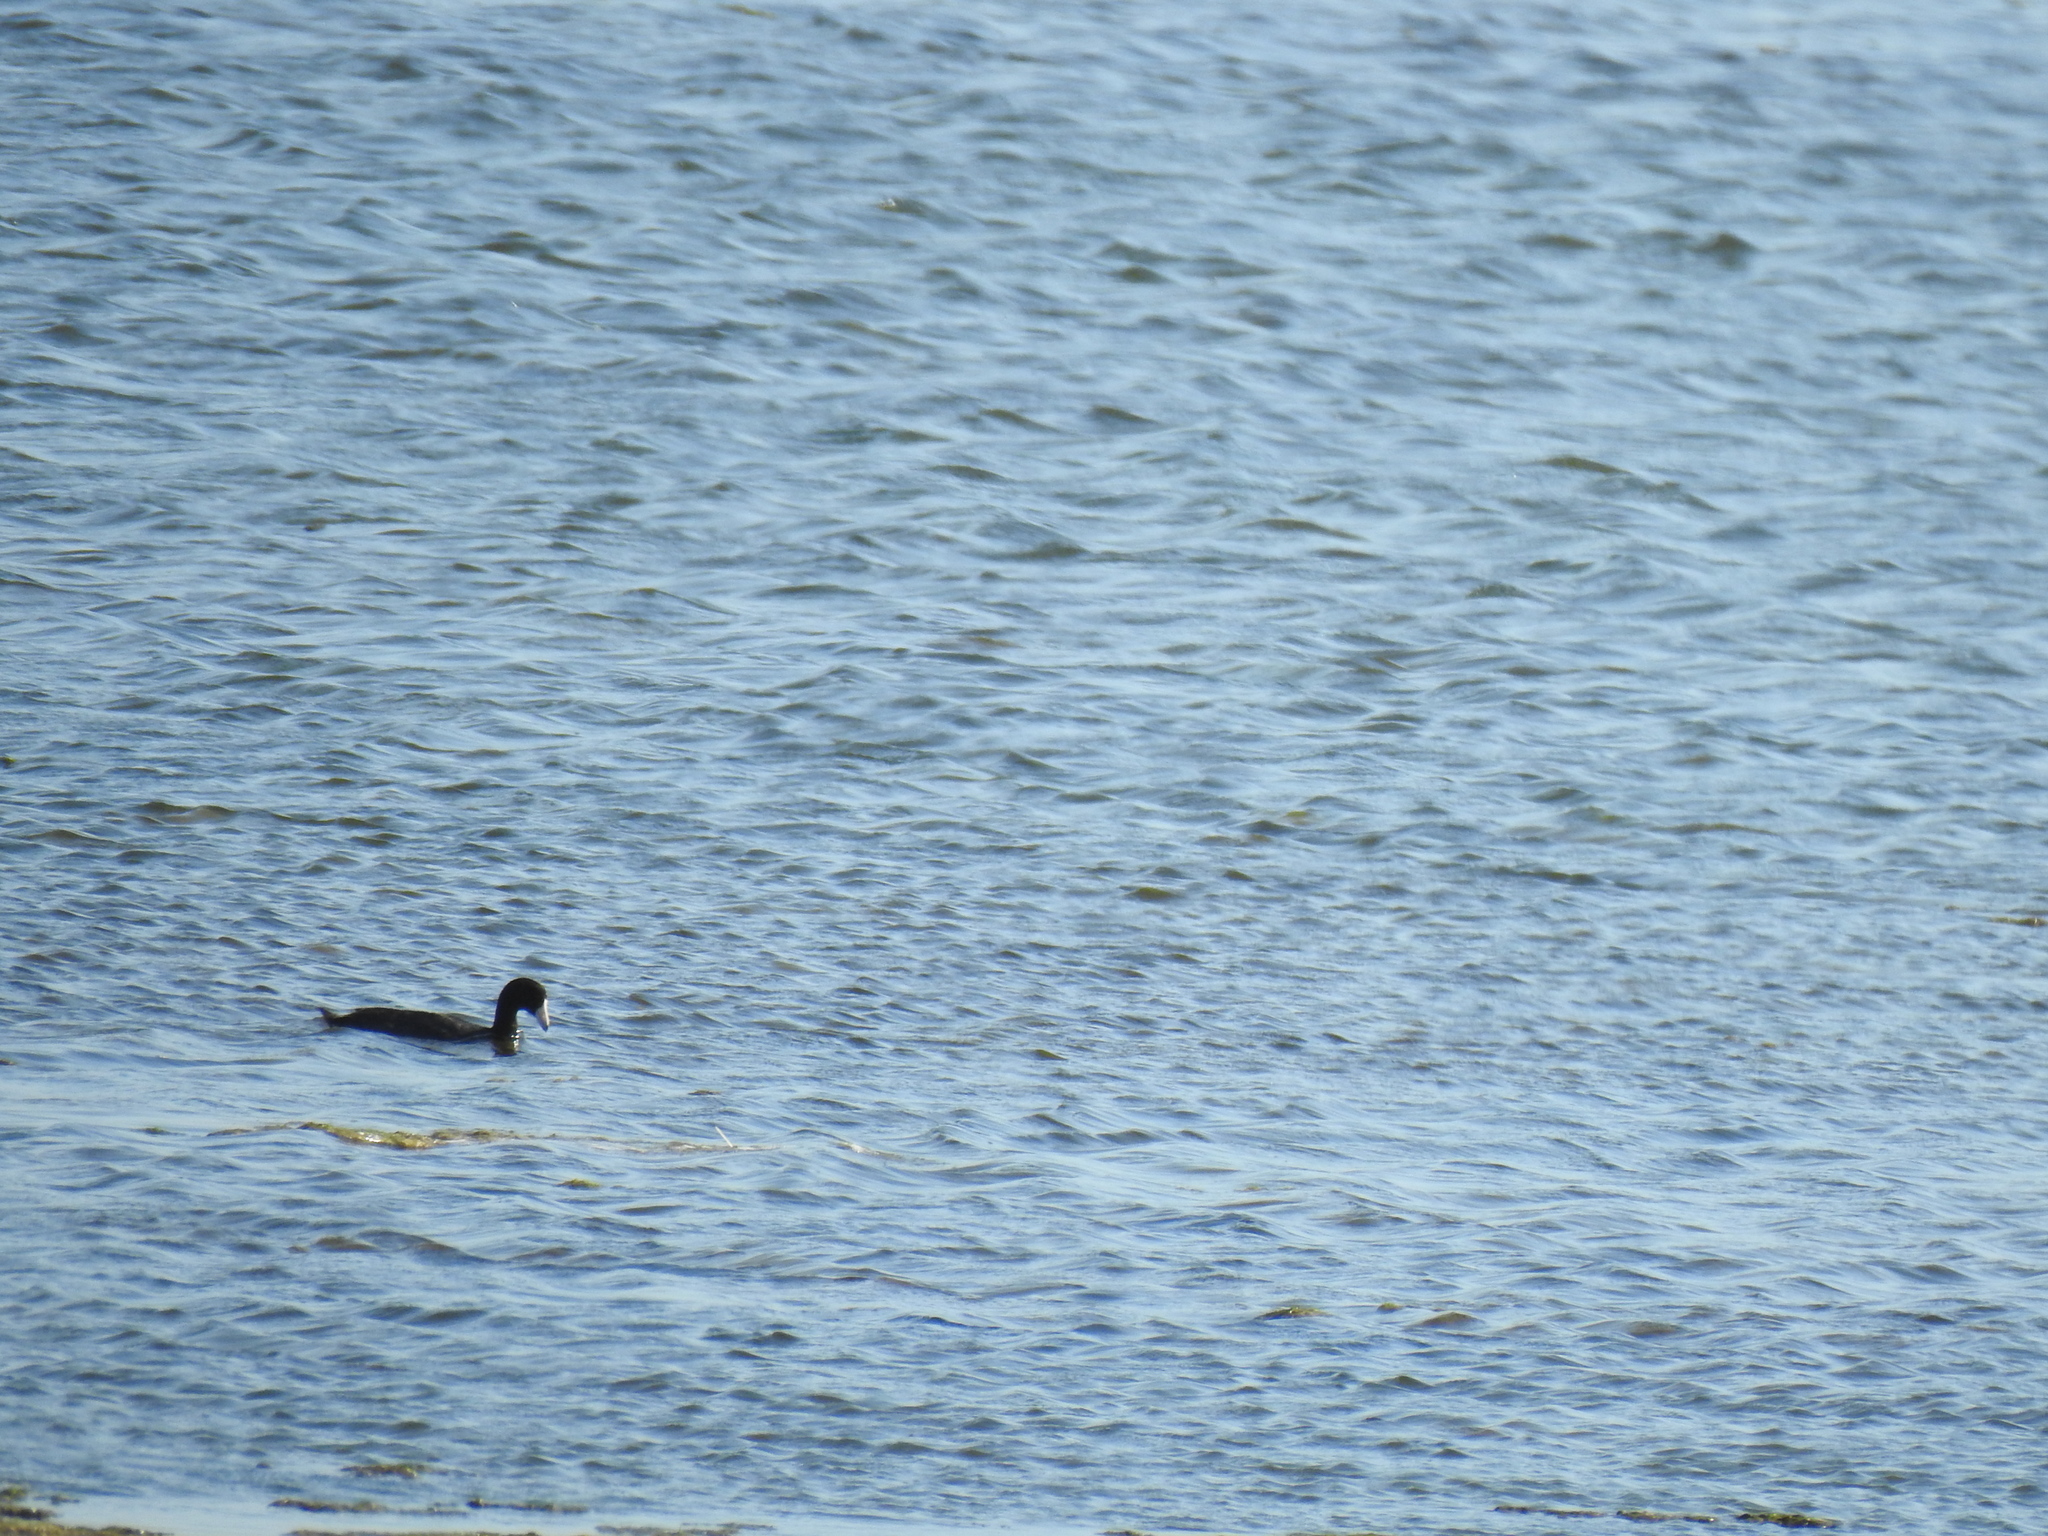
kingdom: Animalia
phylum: Chordata
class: Aves
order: Gruiformes
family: Rallidae
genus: Fulica
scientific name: Fulica americana
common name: American coot
